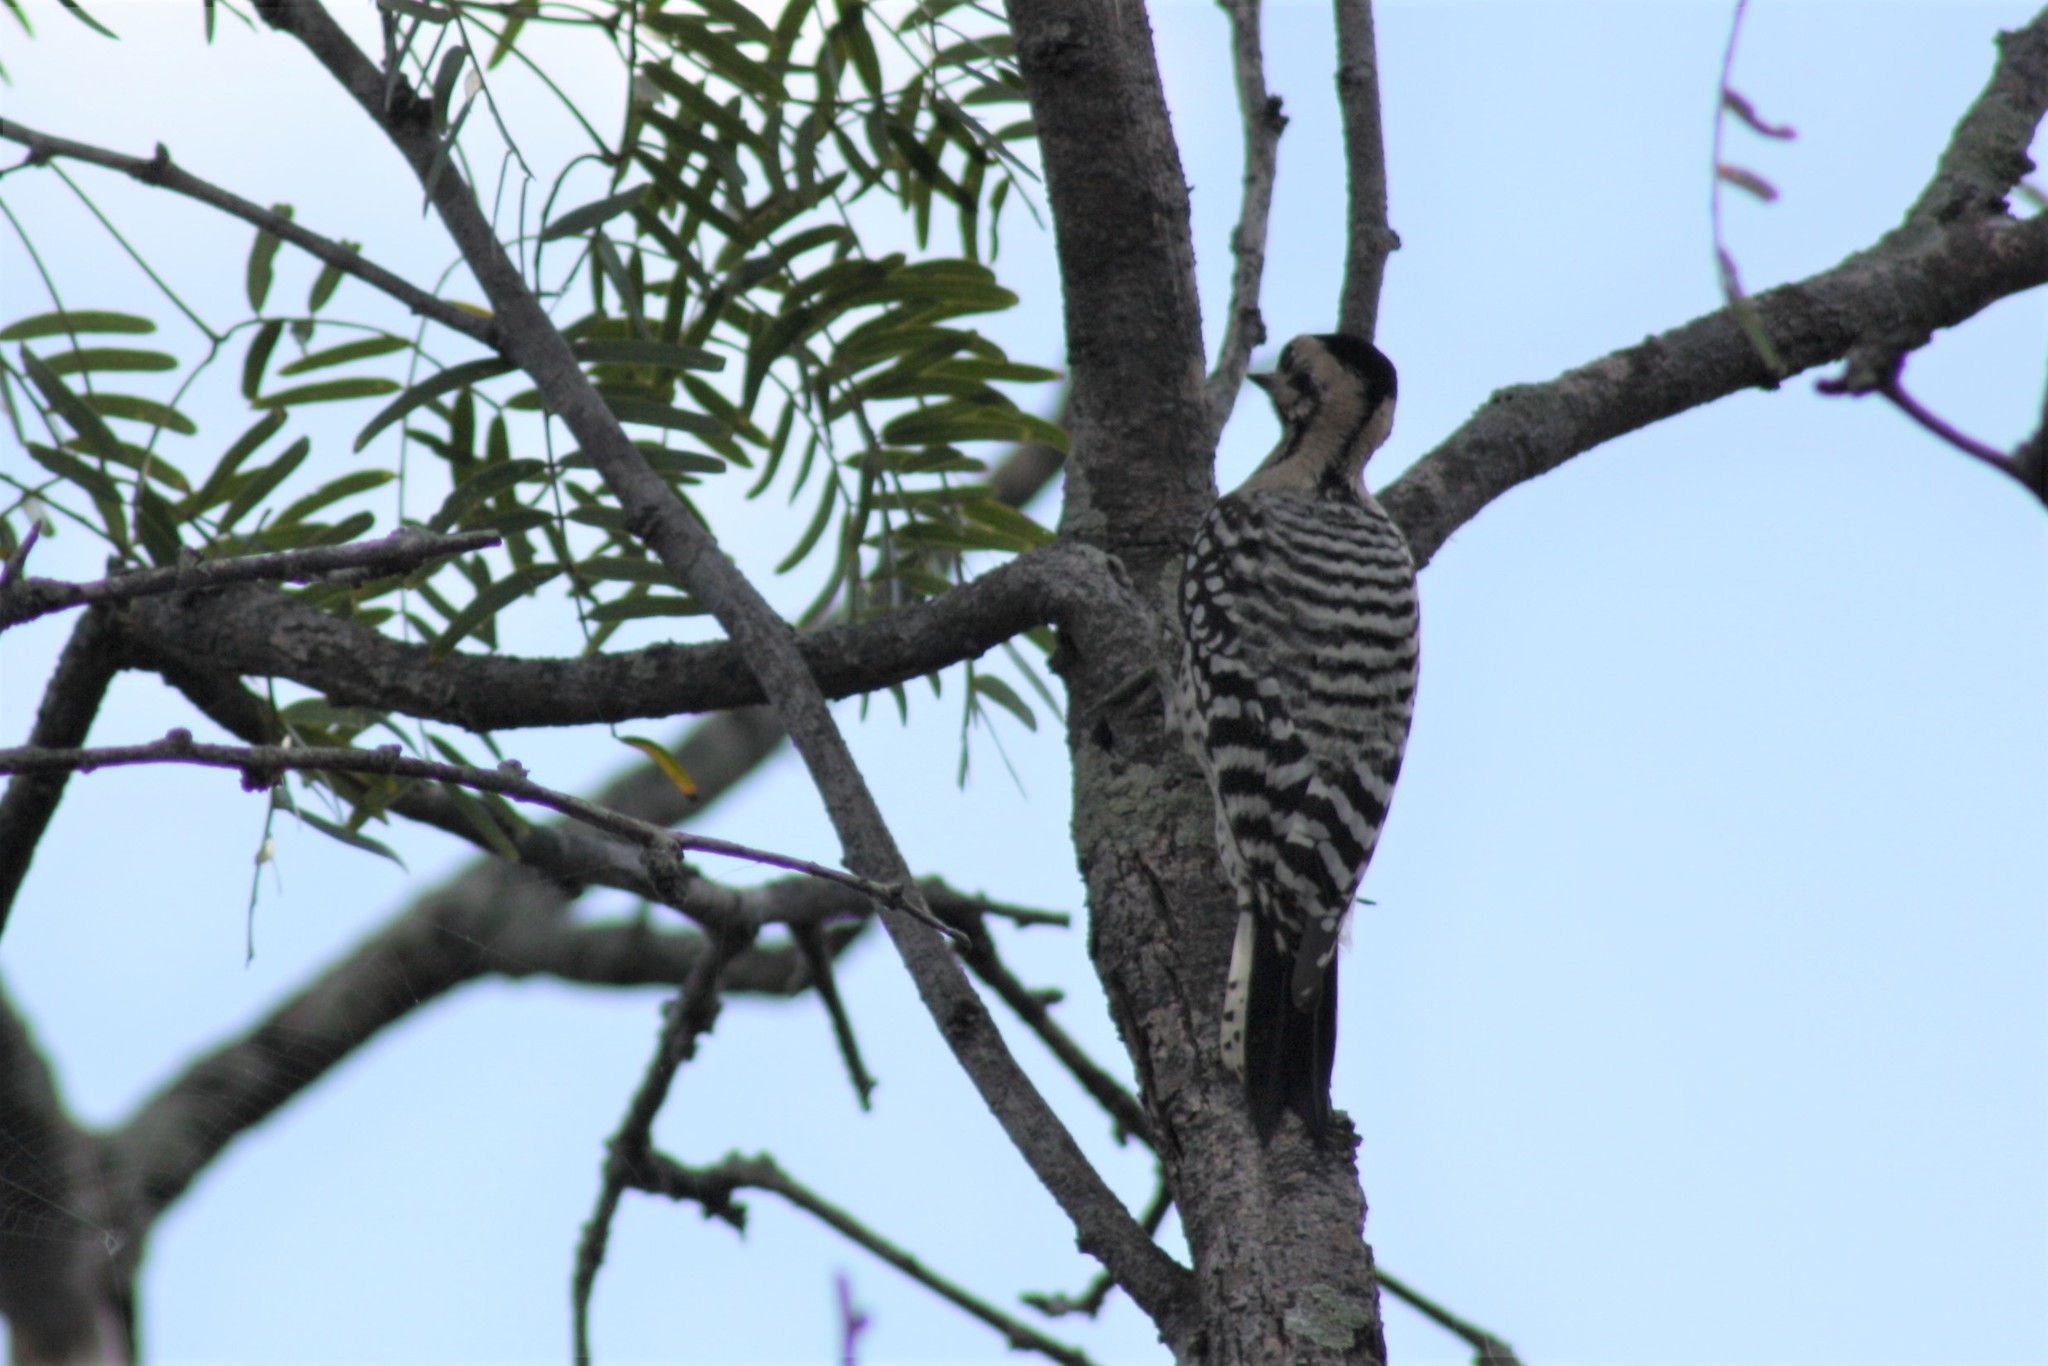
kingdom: Animalia
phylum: Chordata
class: Aves
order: Piciformes
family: Picidae
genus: Dryobates
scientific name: Dryobates scalaris
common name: Ladder-backed woodpecker
